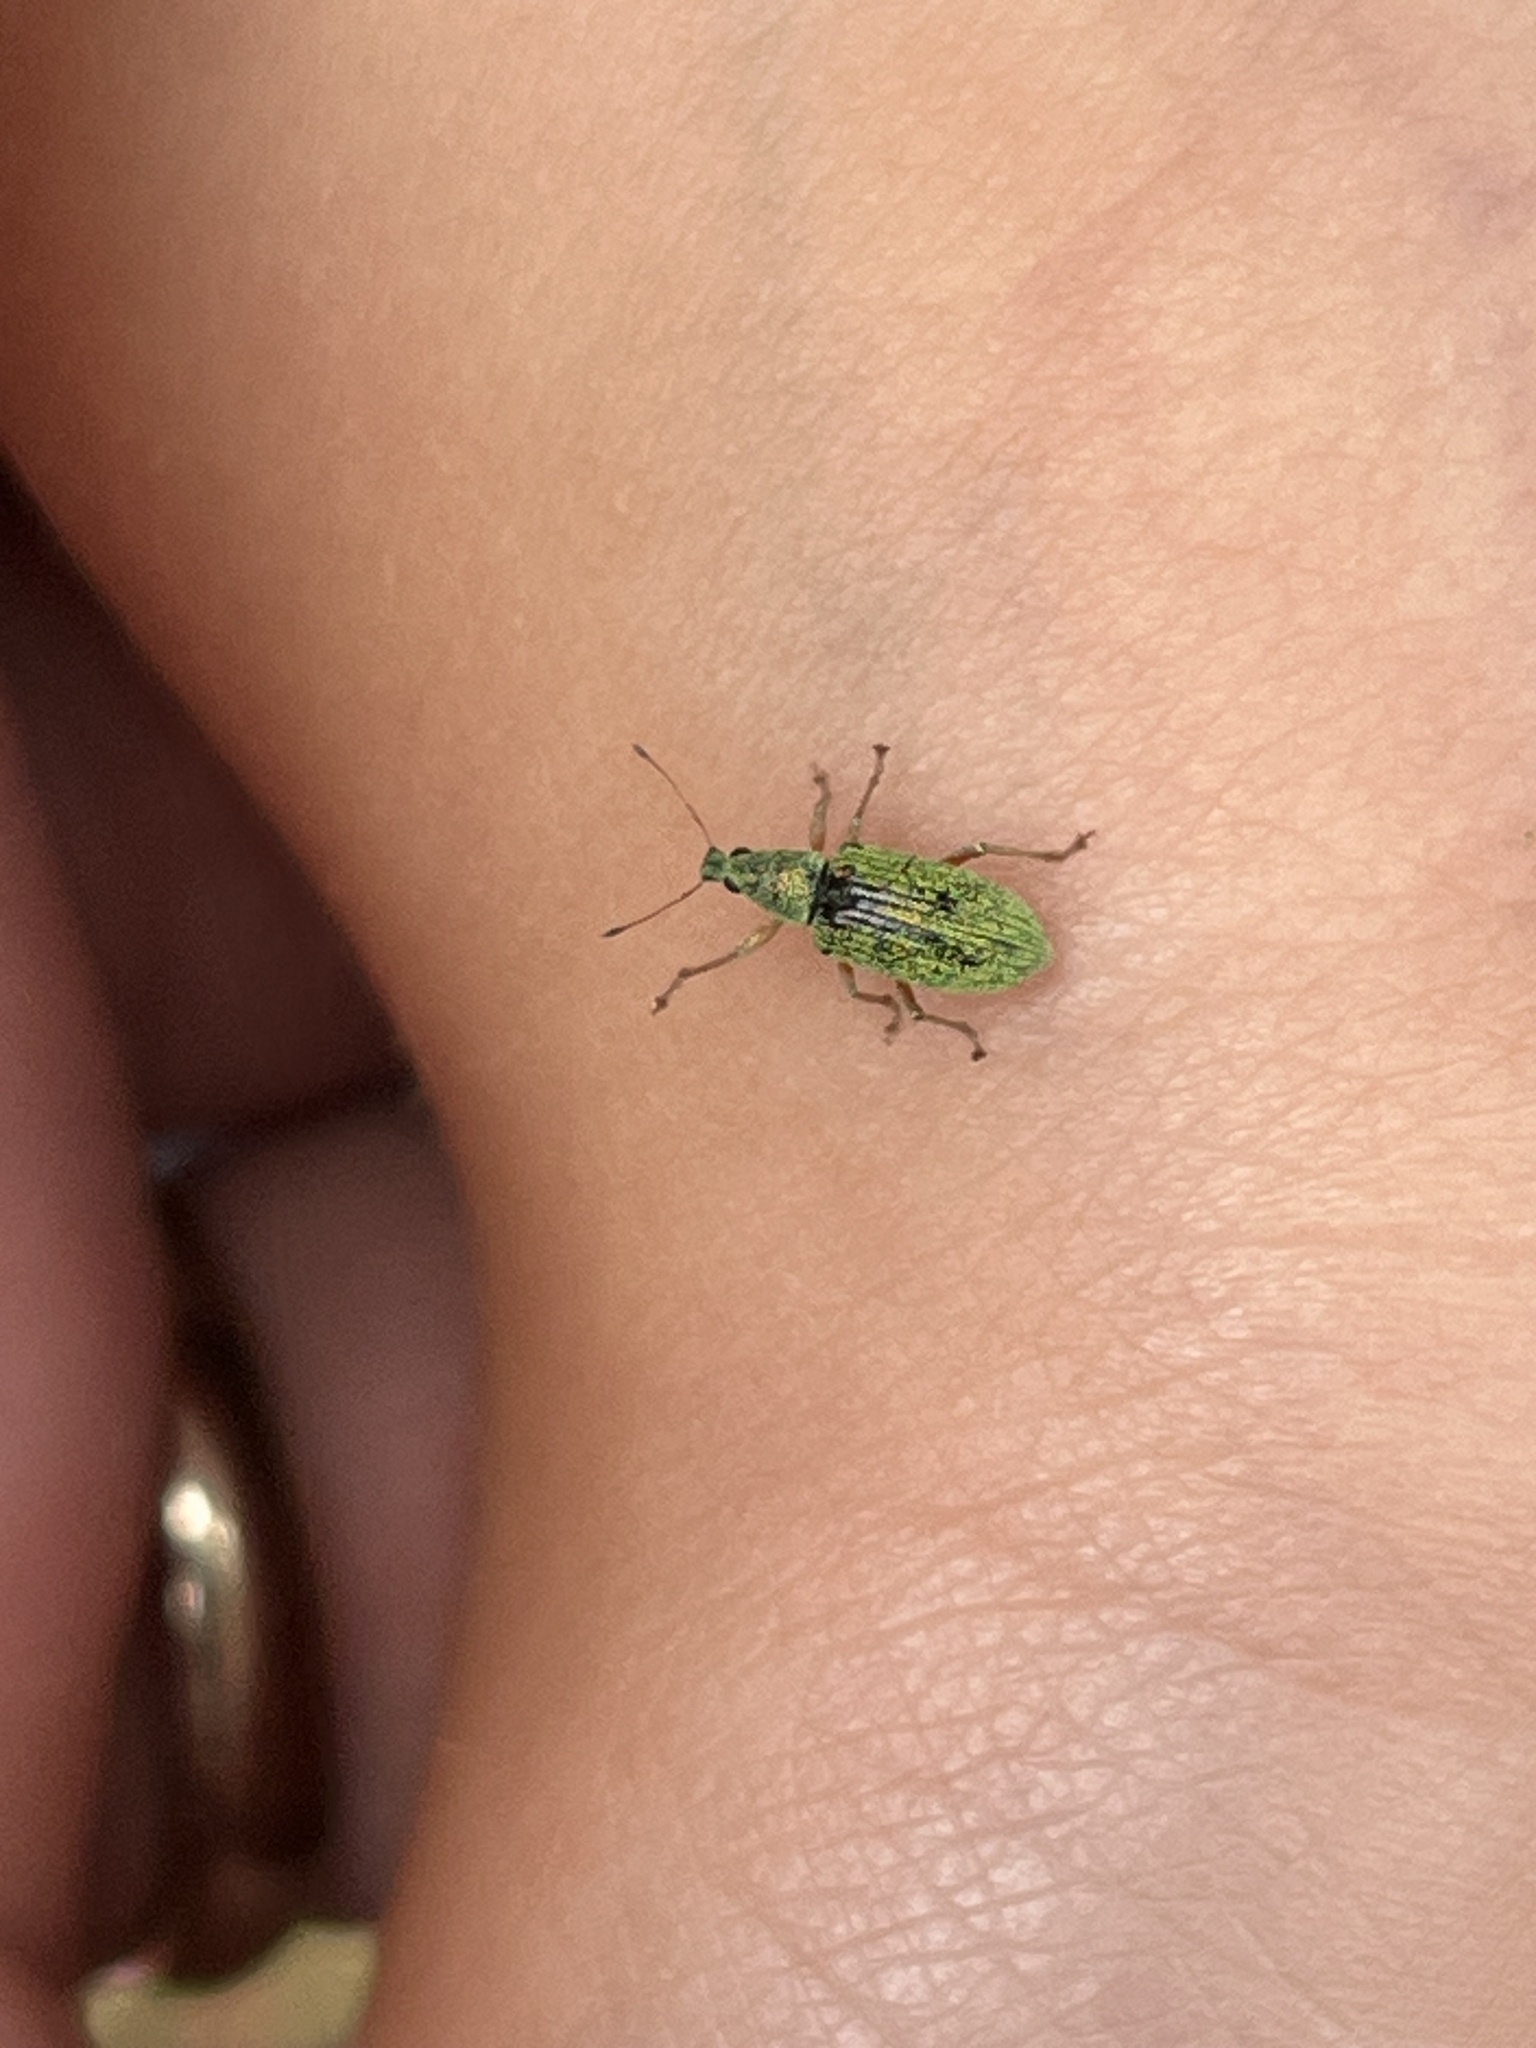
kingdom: Animalia
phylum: Arthropoda
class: Insecta
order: Coleoptera
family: Curculionidae
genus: Polydrusus
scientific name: Polydrusus formosus
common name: Weevil
